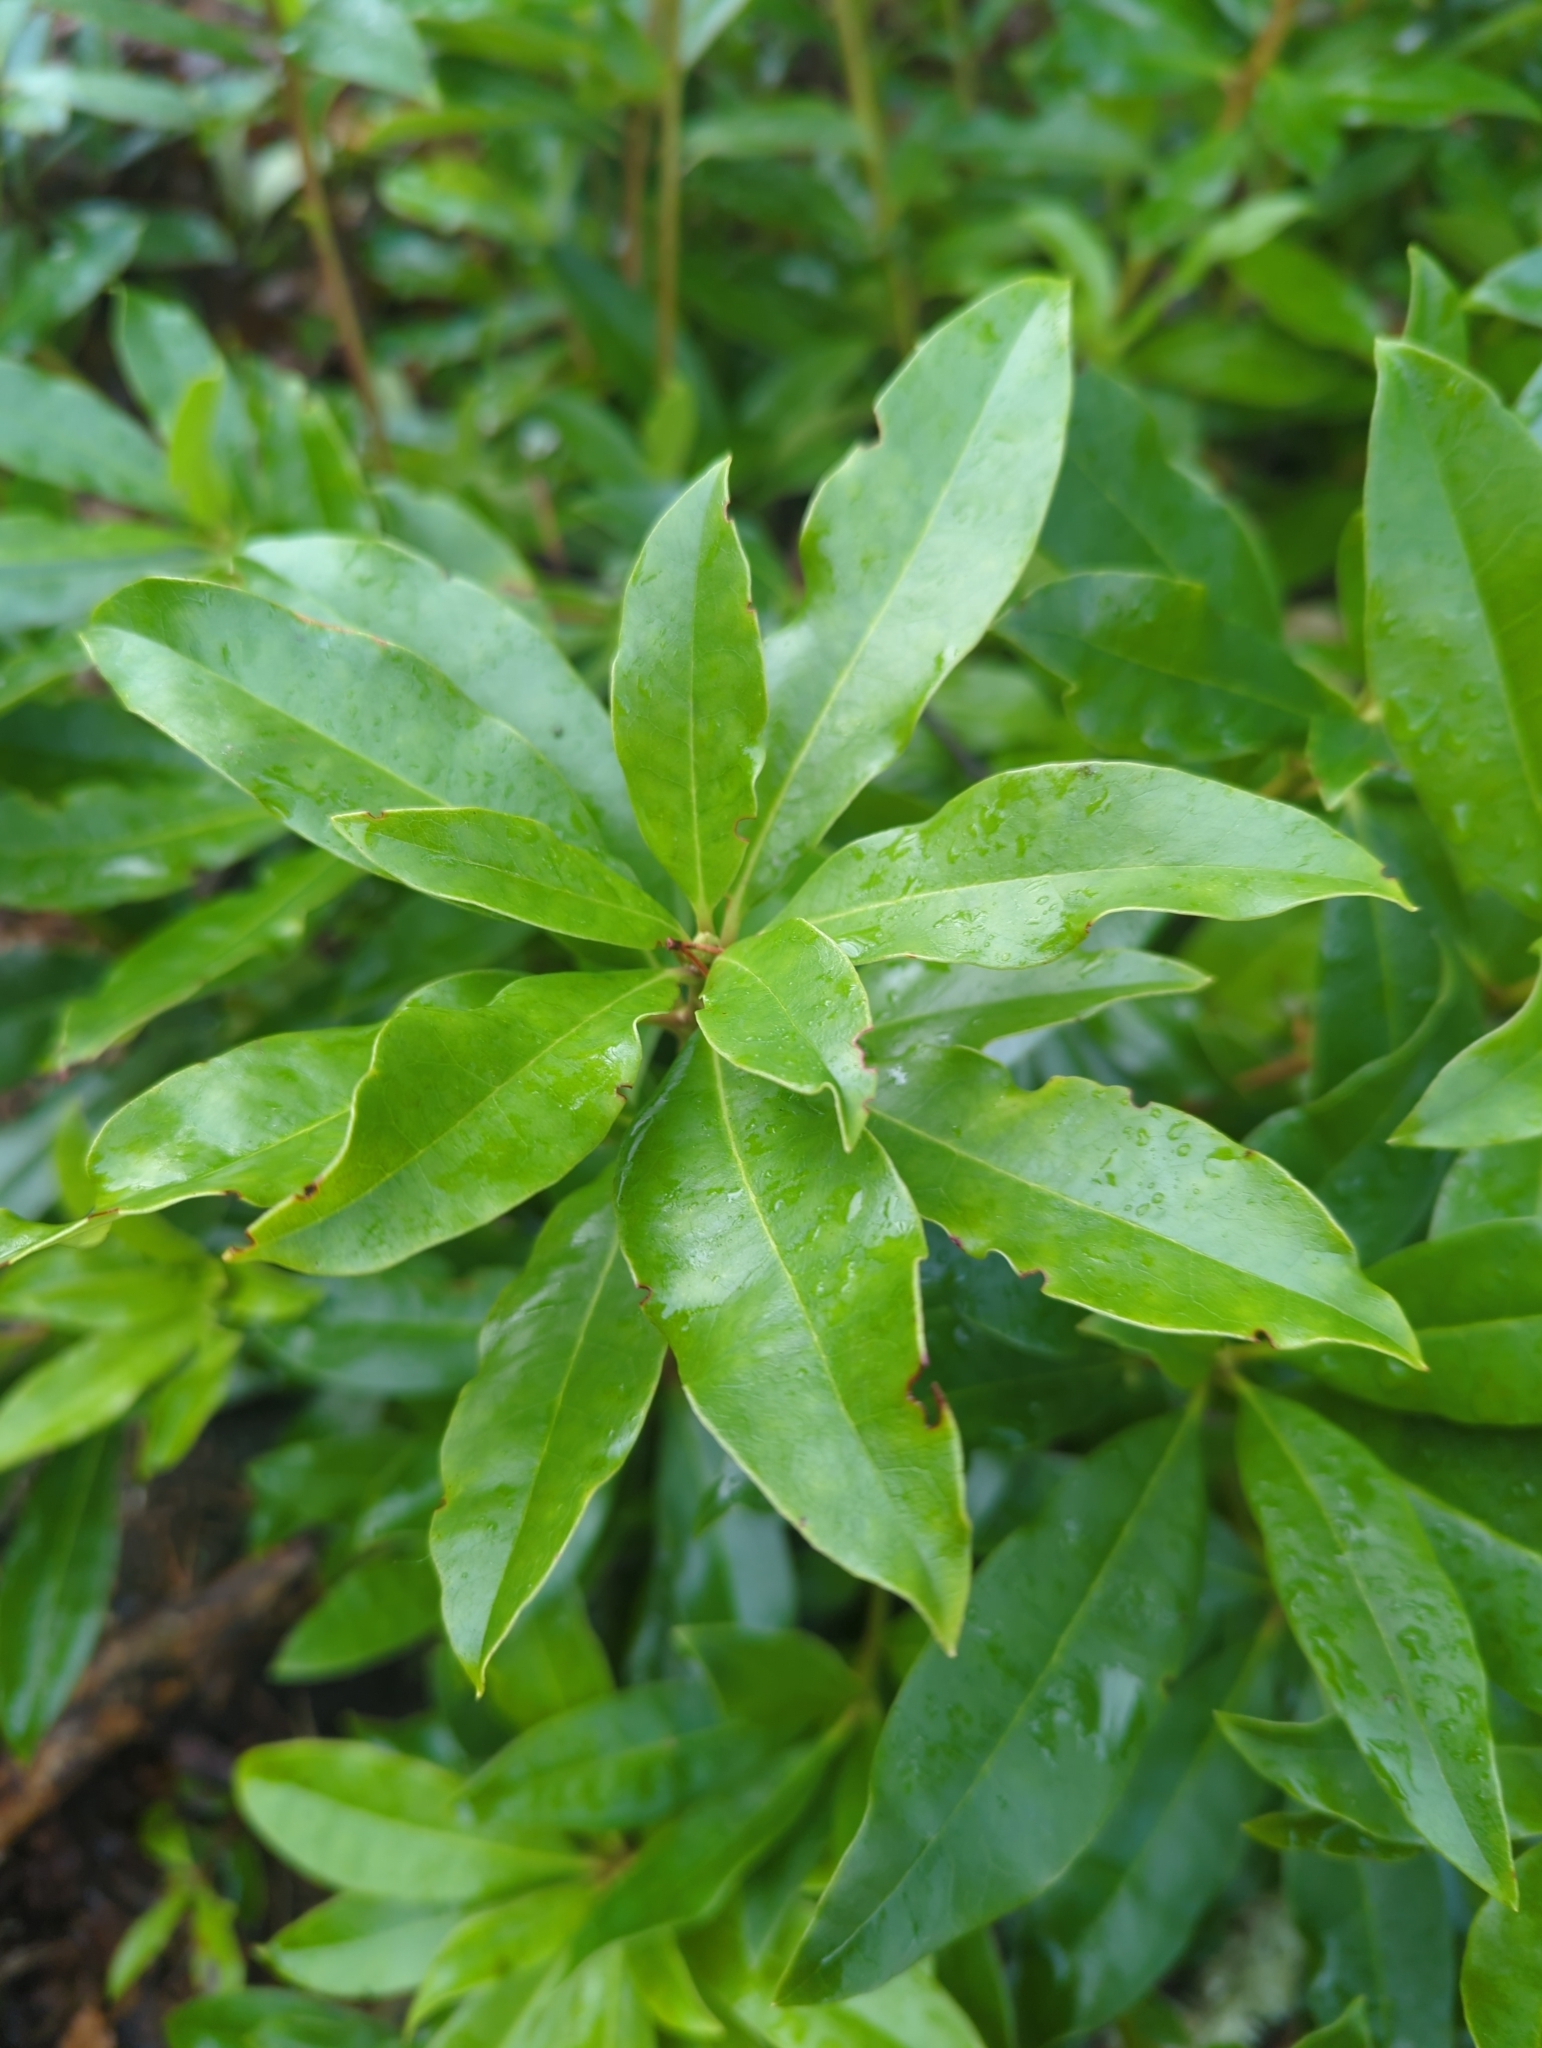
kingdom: Plantae
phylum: Tracheophyta
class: Magnoliopsida
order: Ericales
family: Ericaceae
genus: Rhododendron
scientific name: Rhododendron ponticum
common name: Rhododendron
